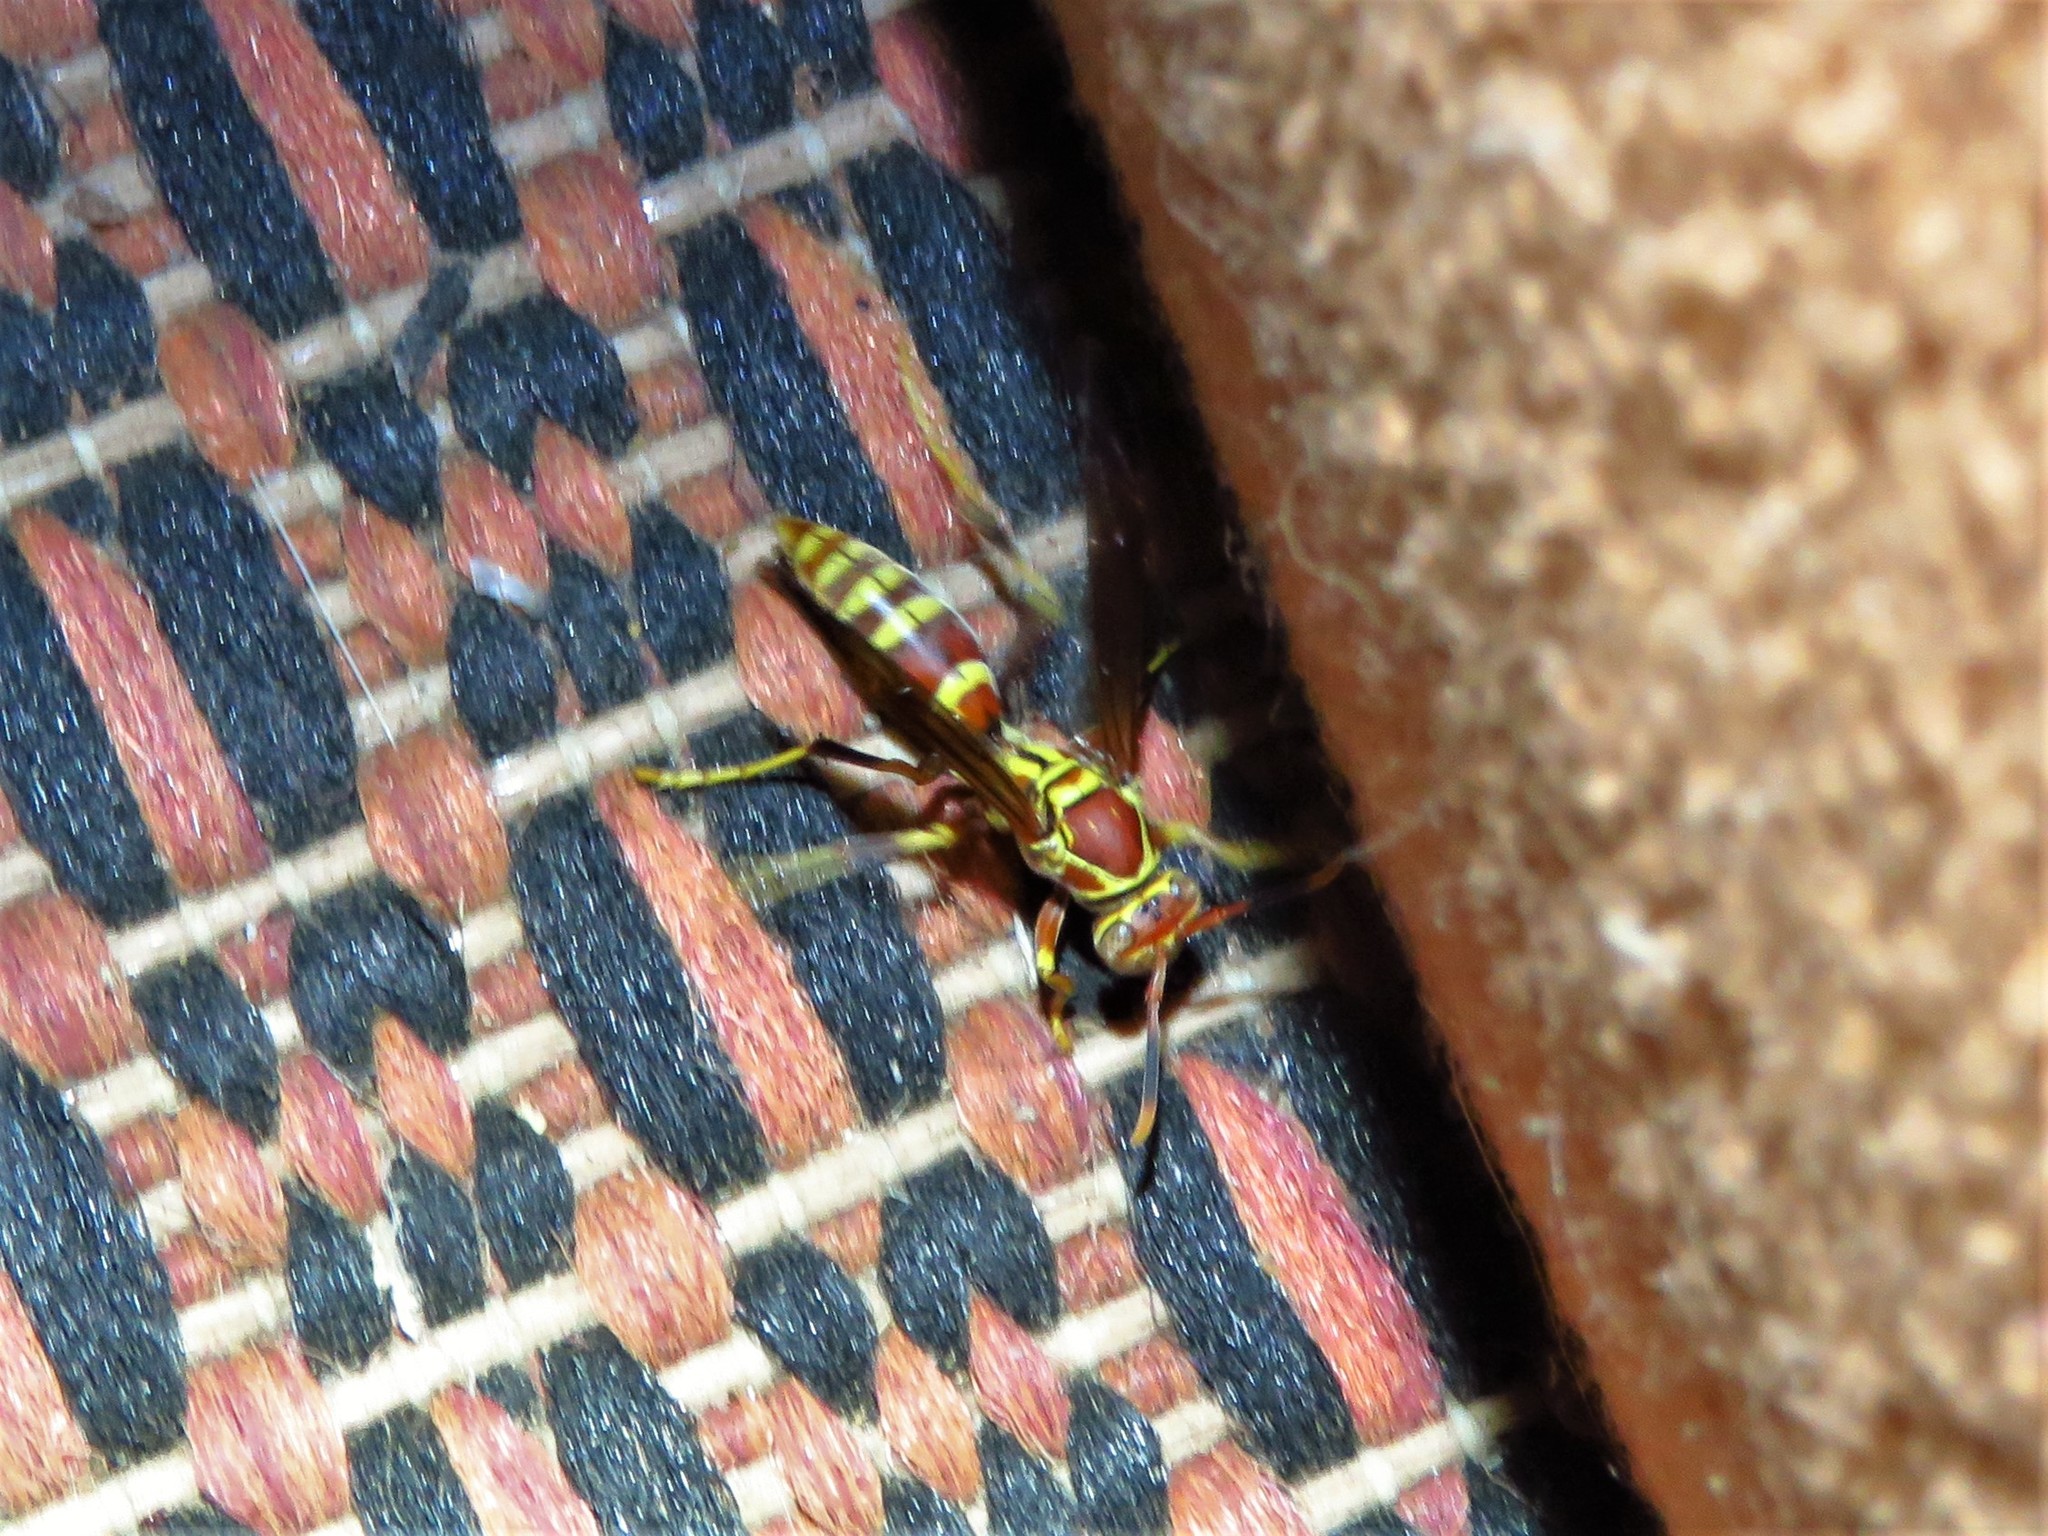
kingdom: Animalia
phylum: Arthropoda
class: Insecta
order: Hymenoptera
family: Eumenidae
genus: Polistes
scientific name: Polistes exclamans
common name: Paper wasp
